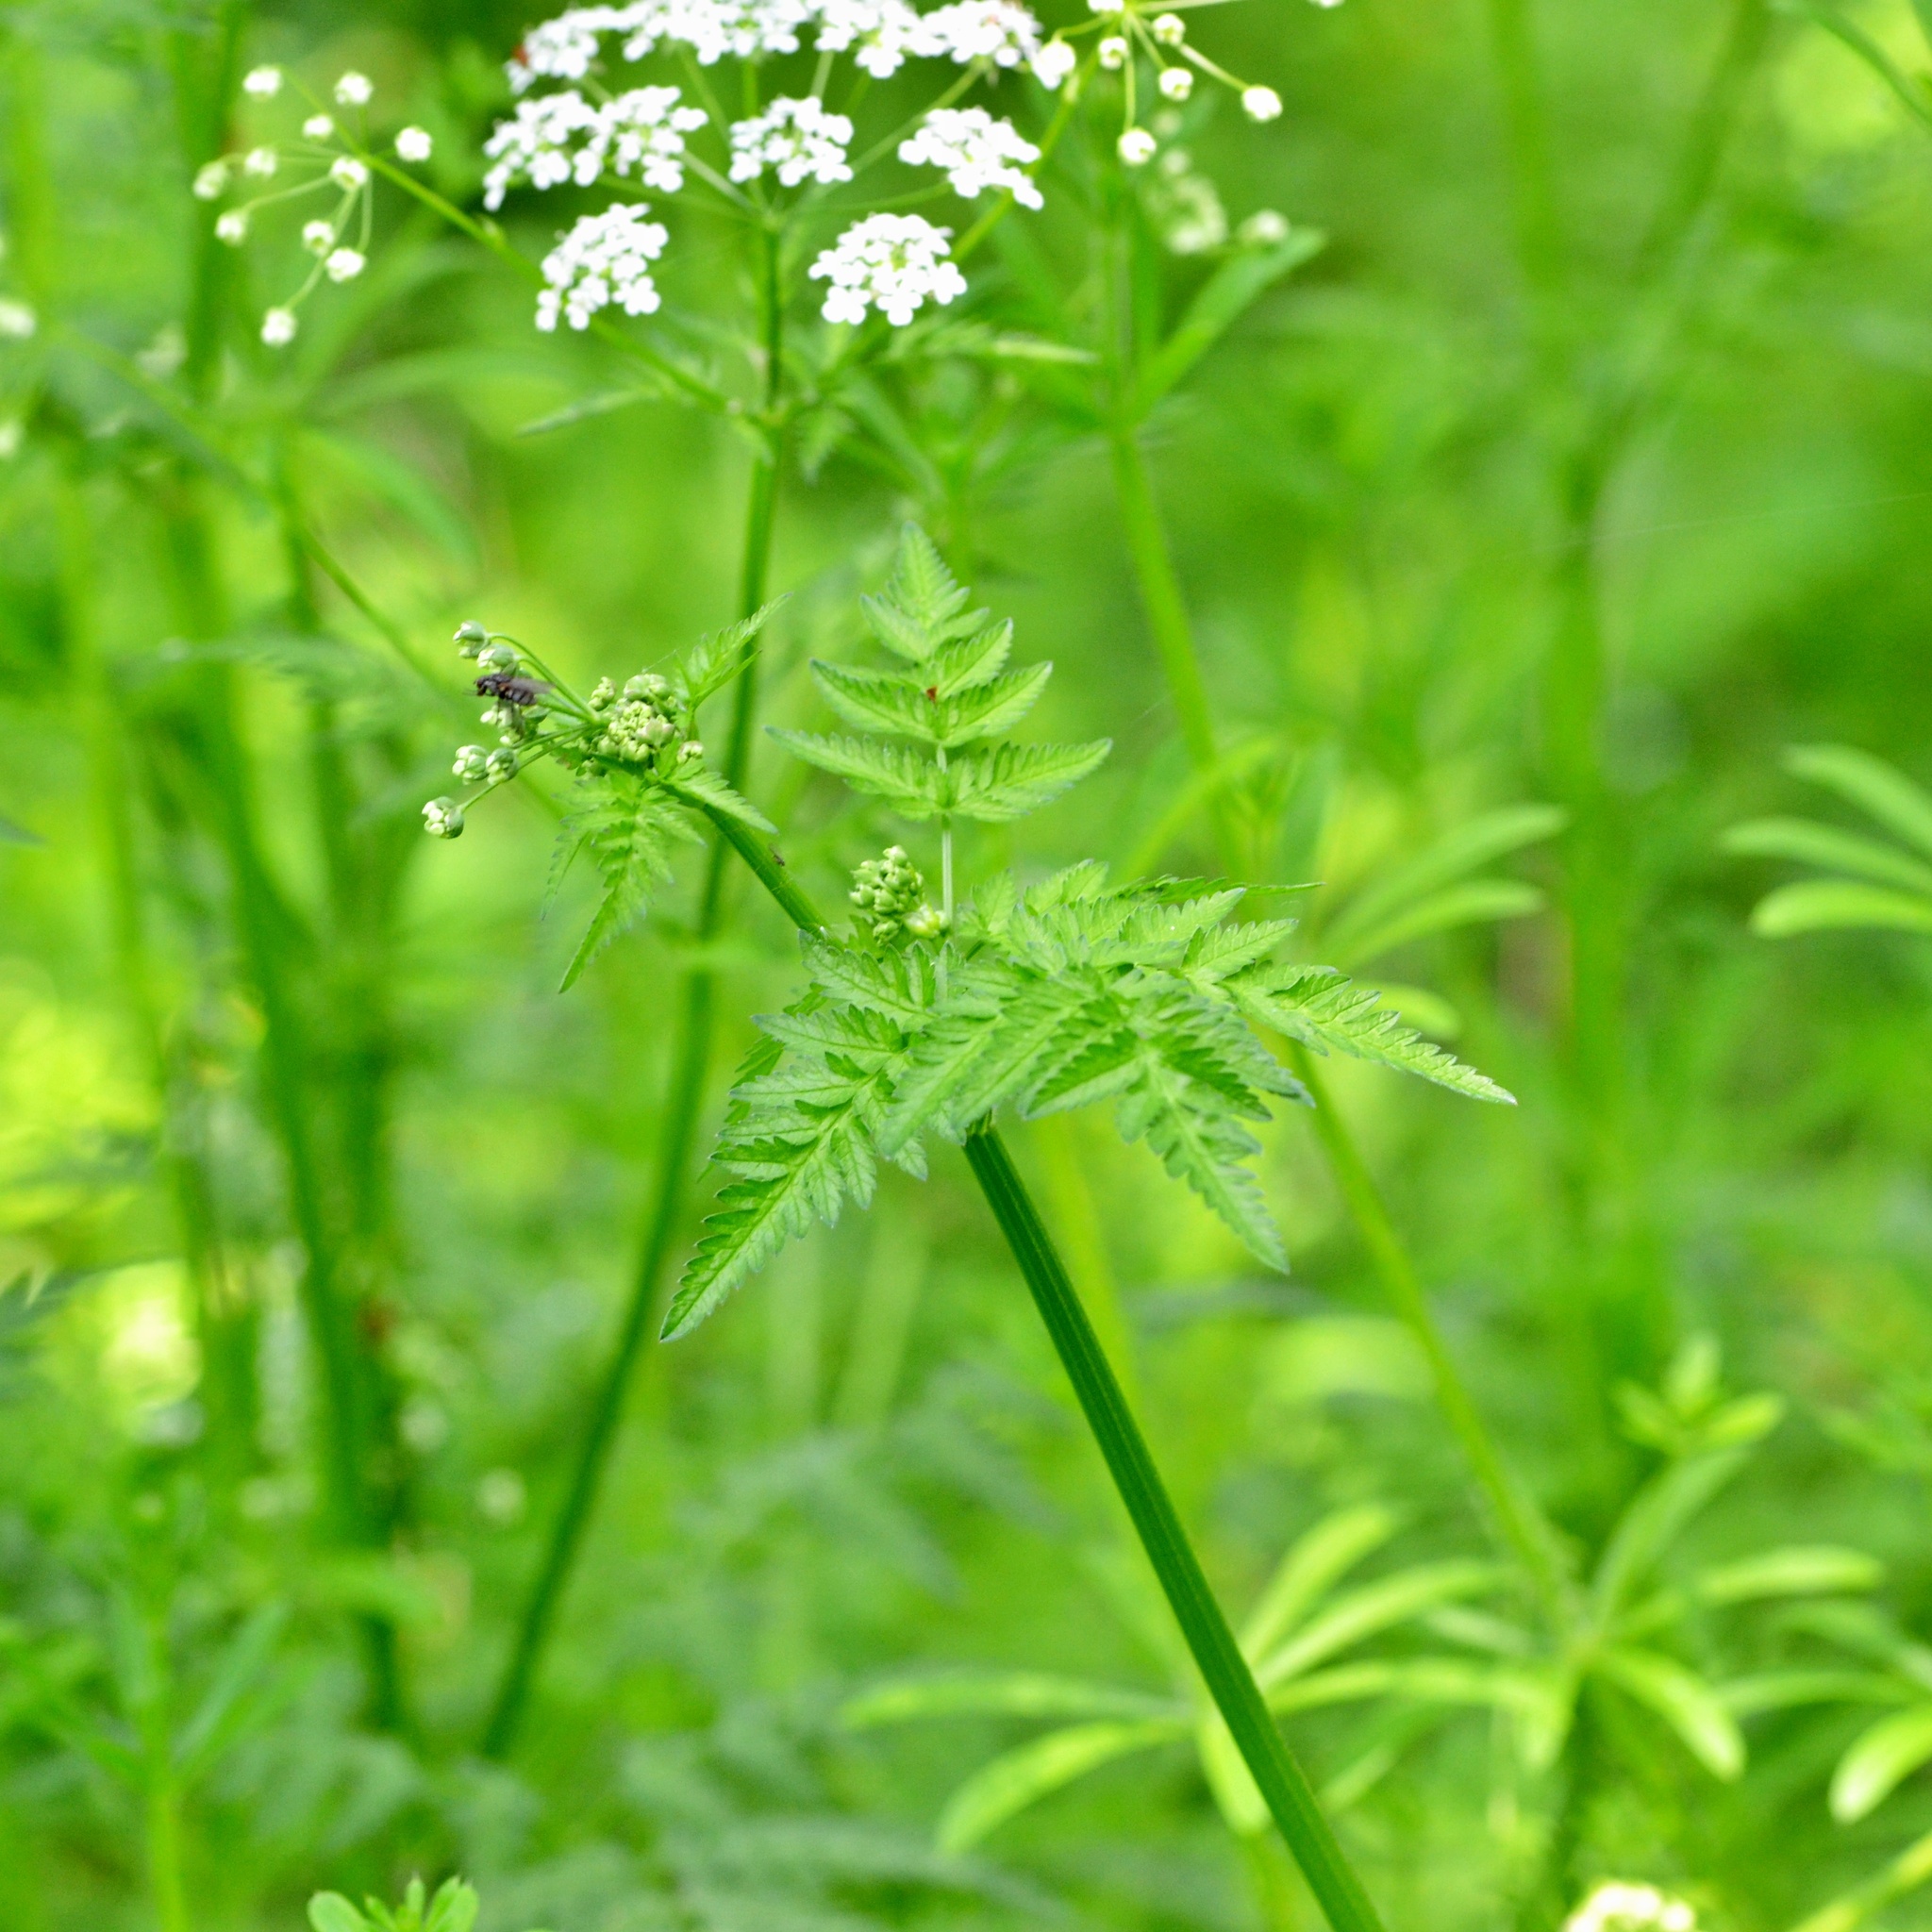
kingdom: Plantae
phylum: Tracheophyta
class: Magnoliopsida
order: Apiales
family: Apiaceae
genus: Anthriscus
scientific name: Anthriscus sylvestris
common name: Cow parsley
